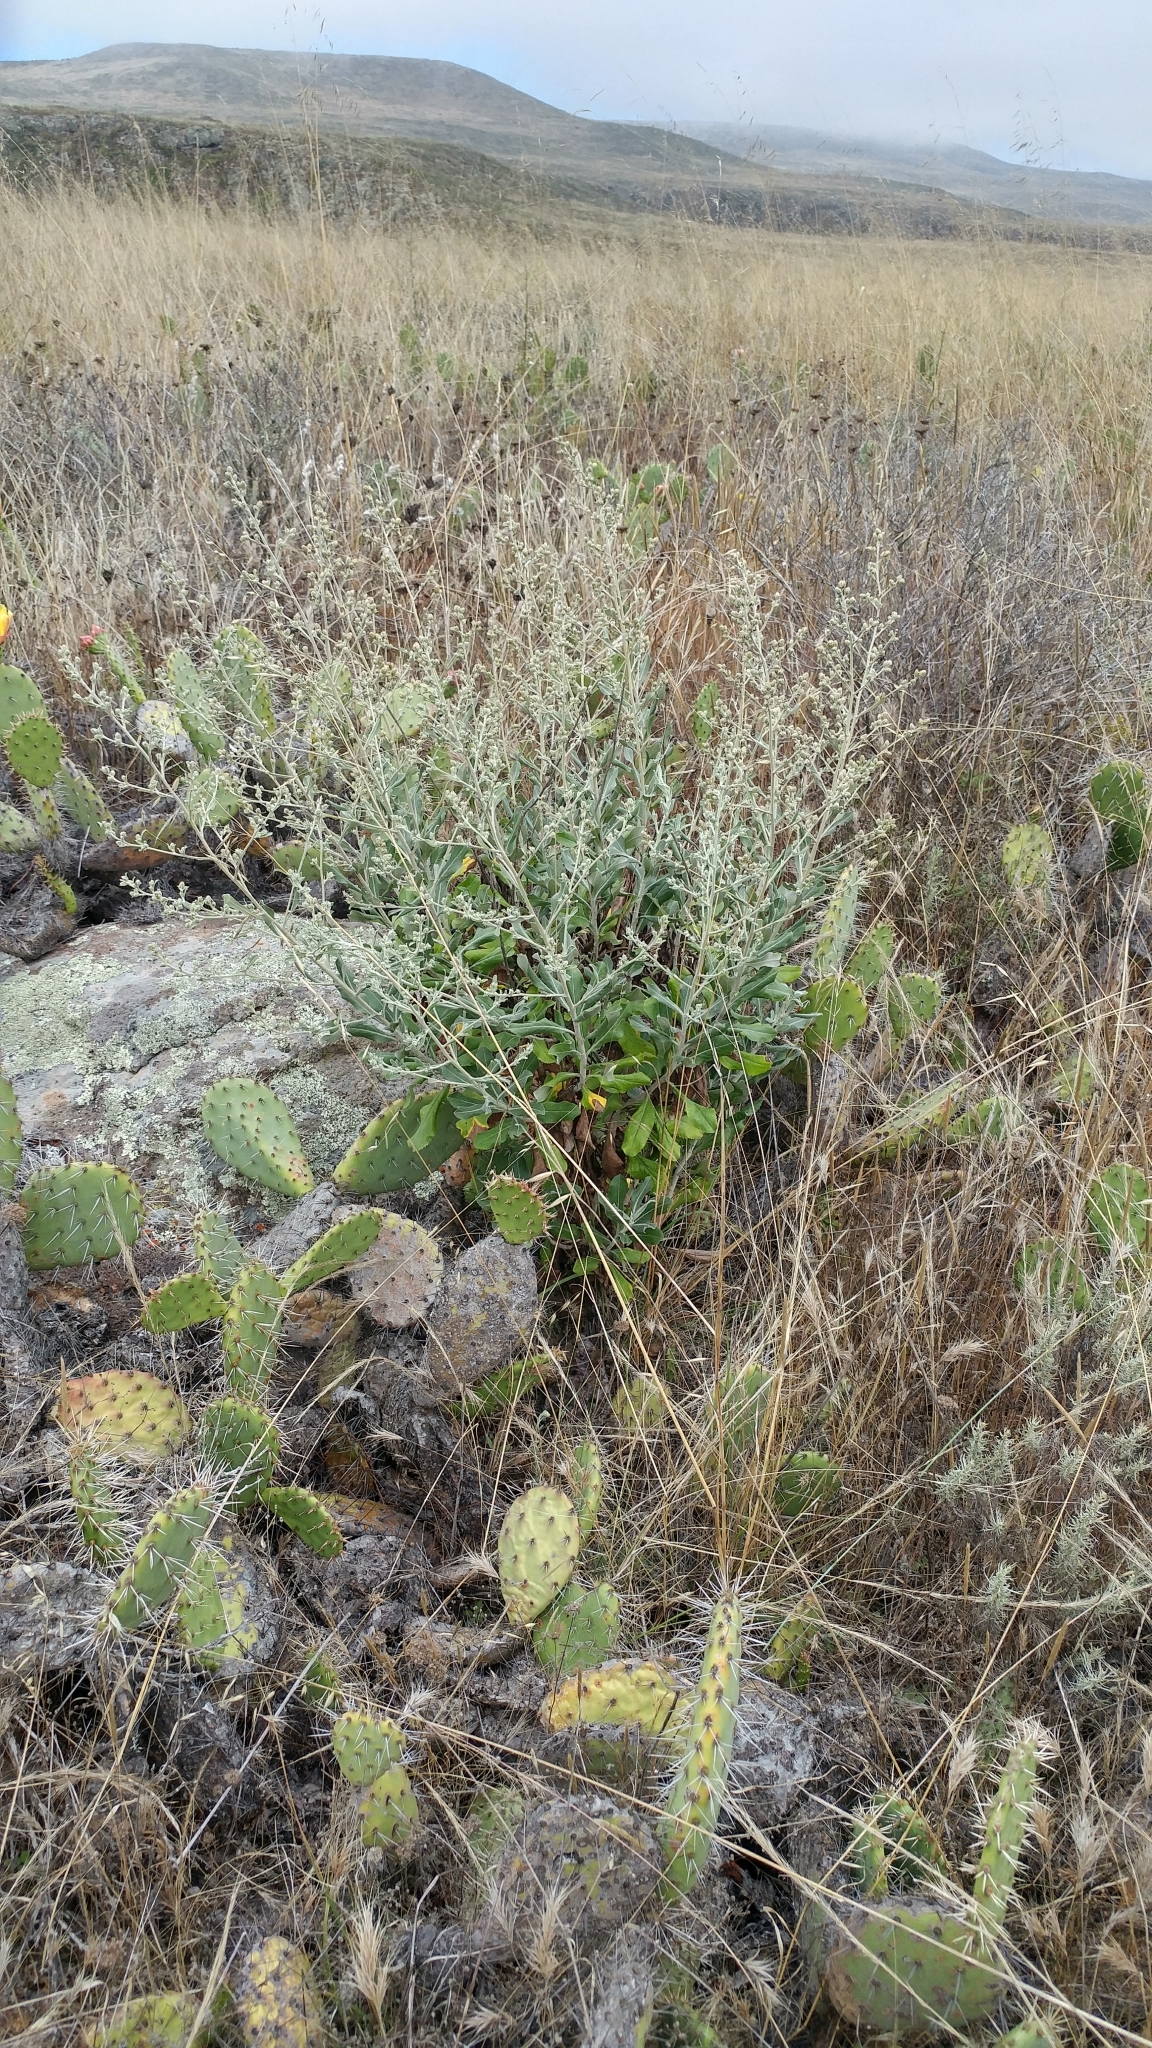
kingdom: Plantae
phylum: Tracheophyta
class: Magnoliopsida
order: Asterales
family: Asteraceae
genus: Hazardia
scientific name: Hazardia cana
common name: San clemente island bristleweed
